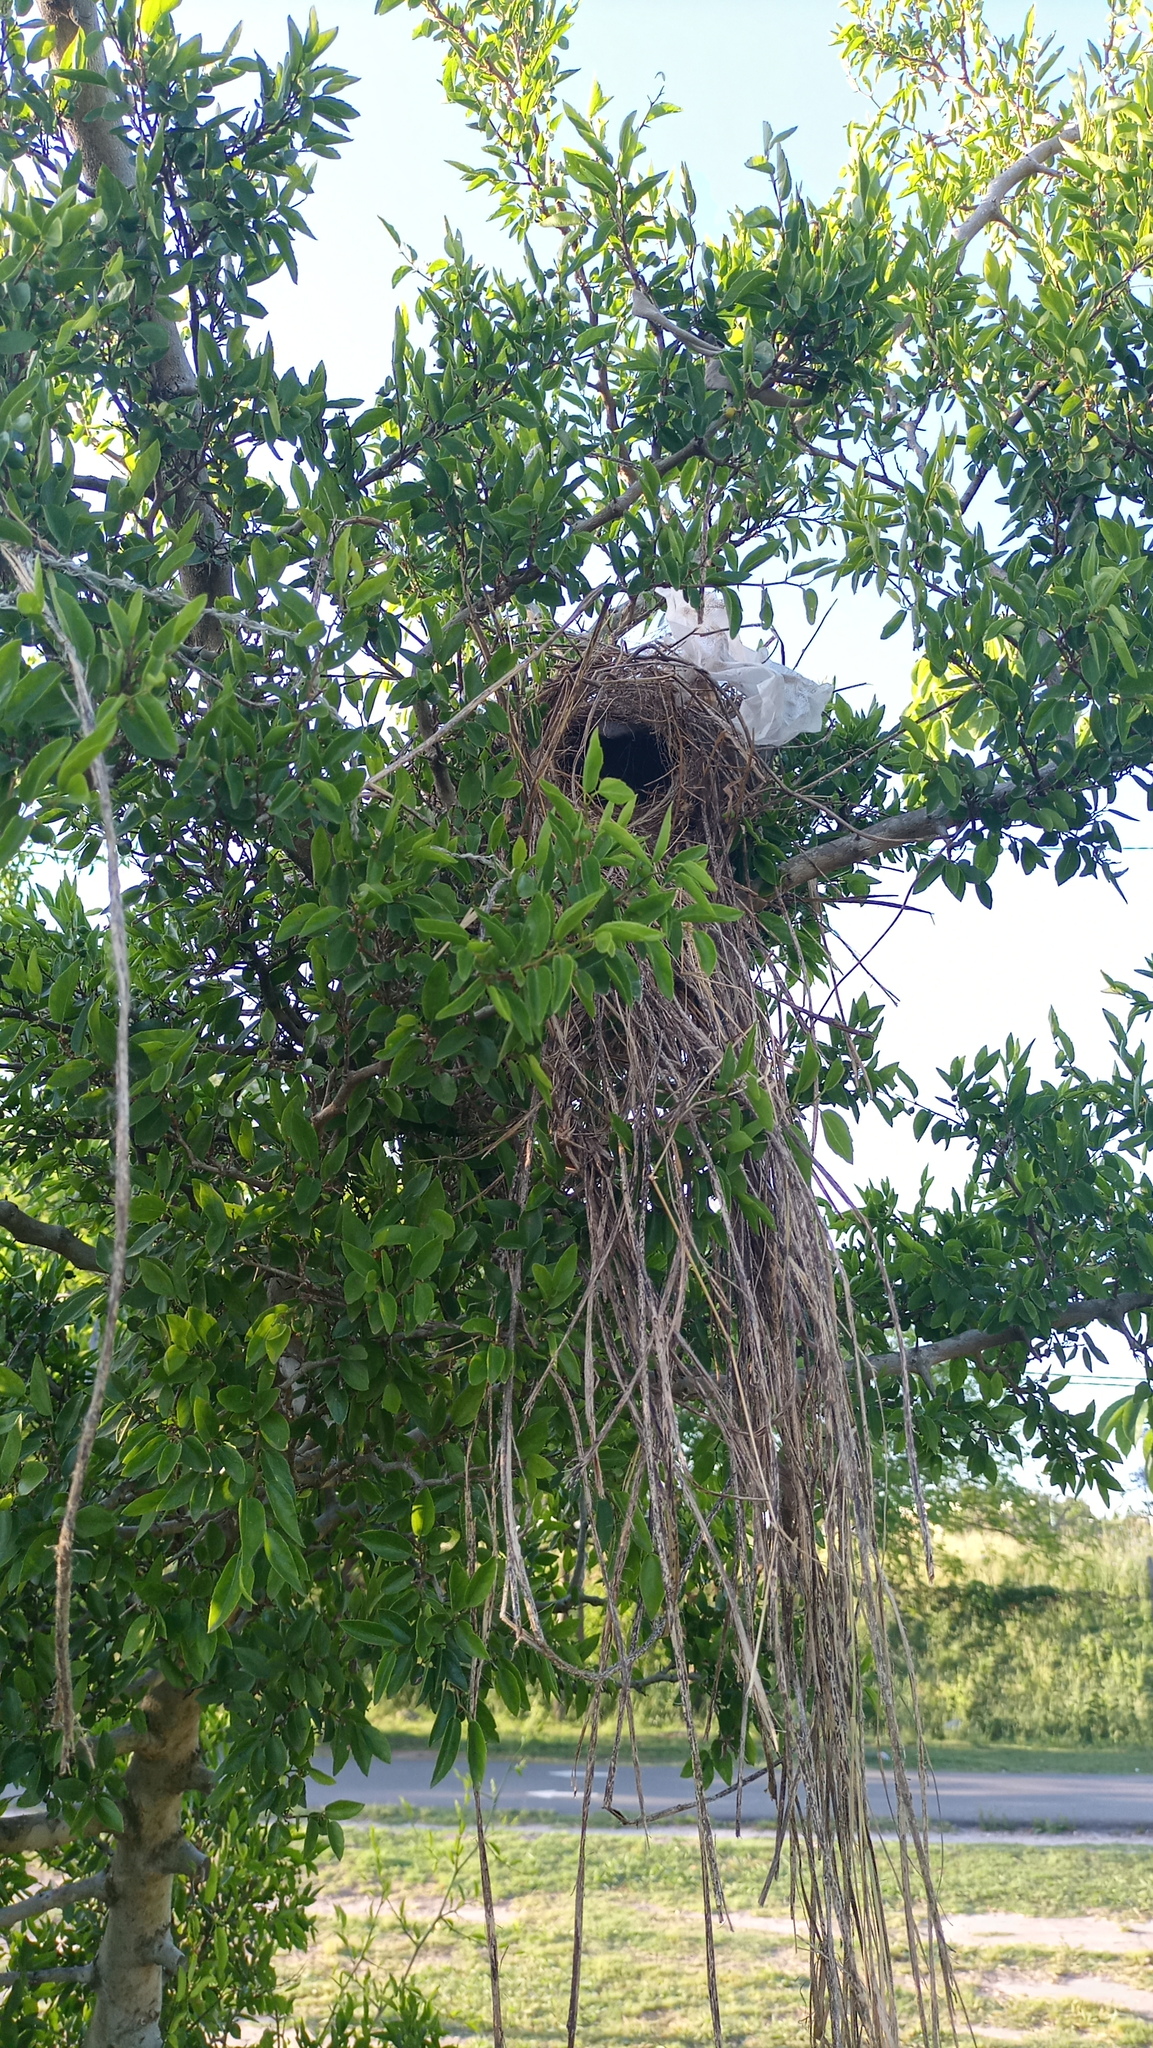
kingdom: Animalia
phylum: Chordata
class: Aves
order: Passeriformes
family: Tyrannidae
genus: Pitangus
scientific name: Pitangus sulphuratus
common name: Great kiskadee
